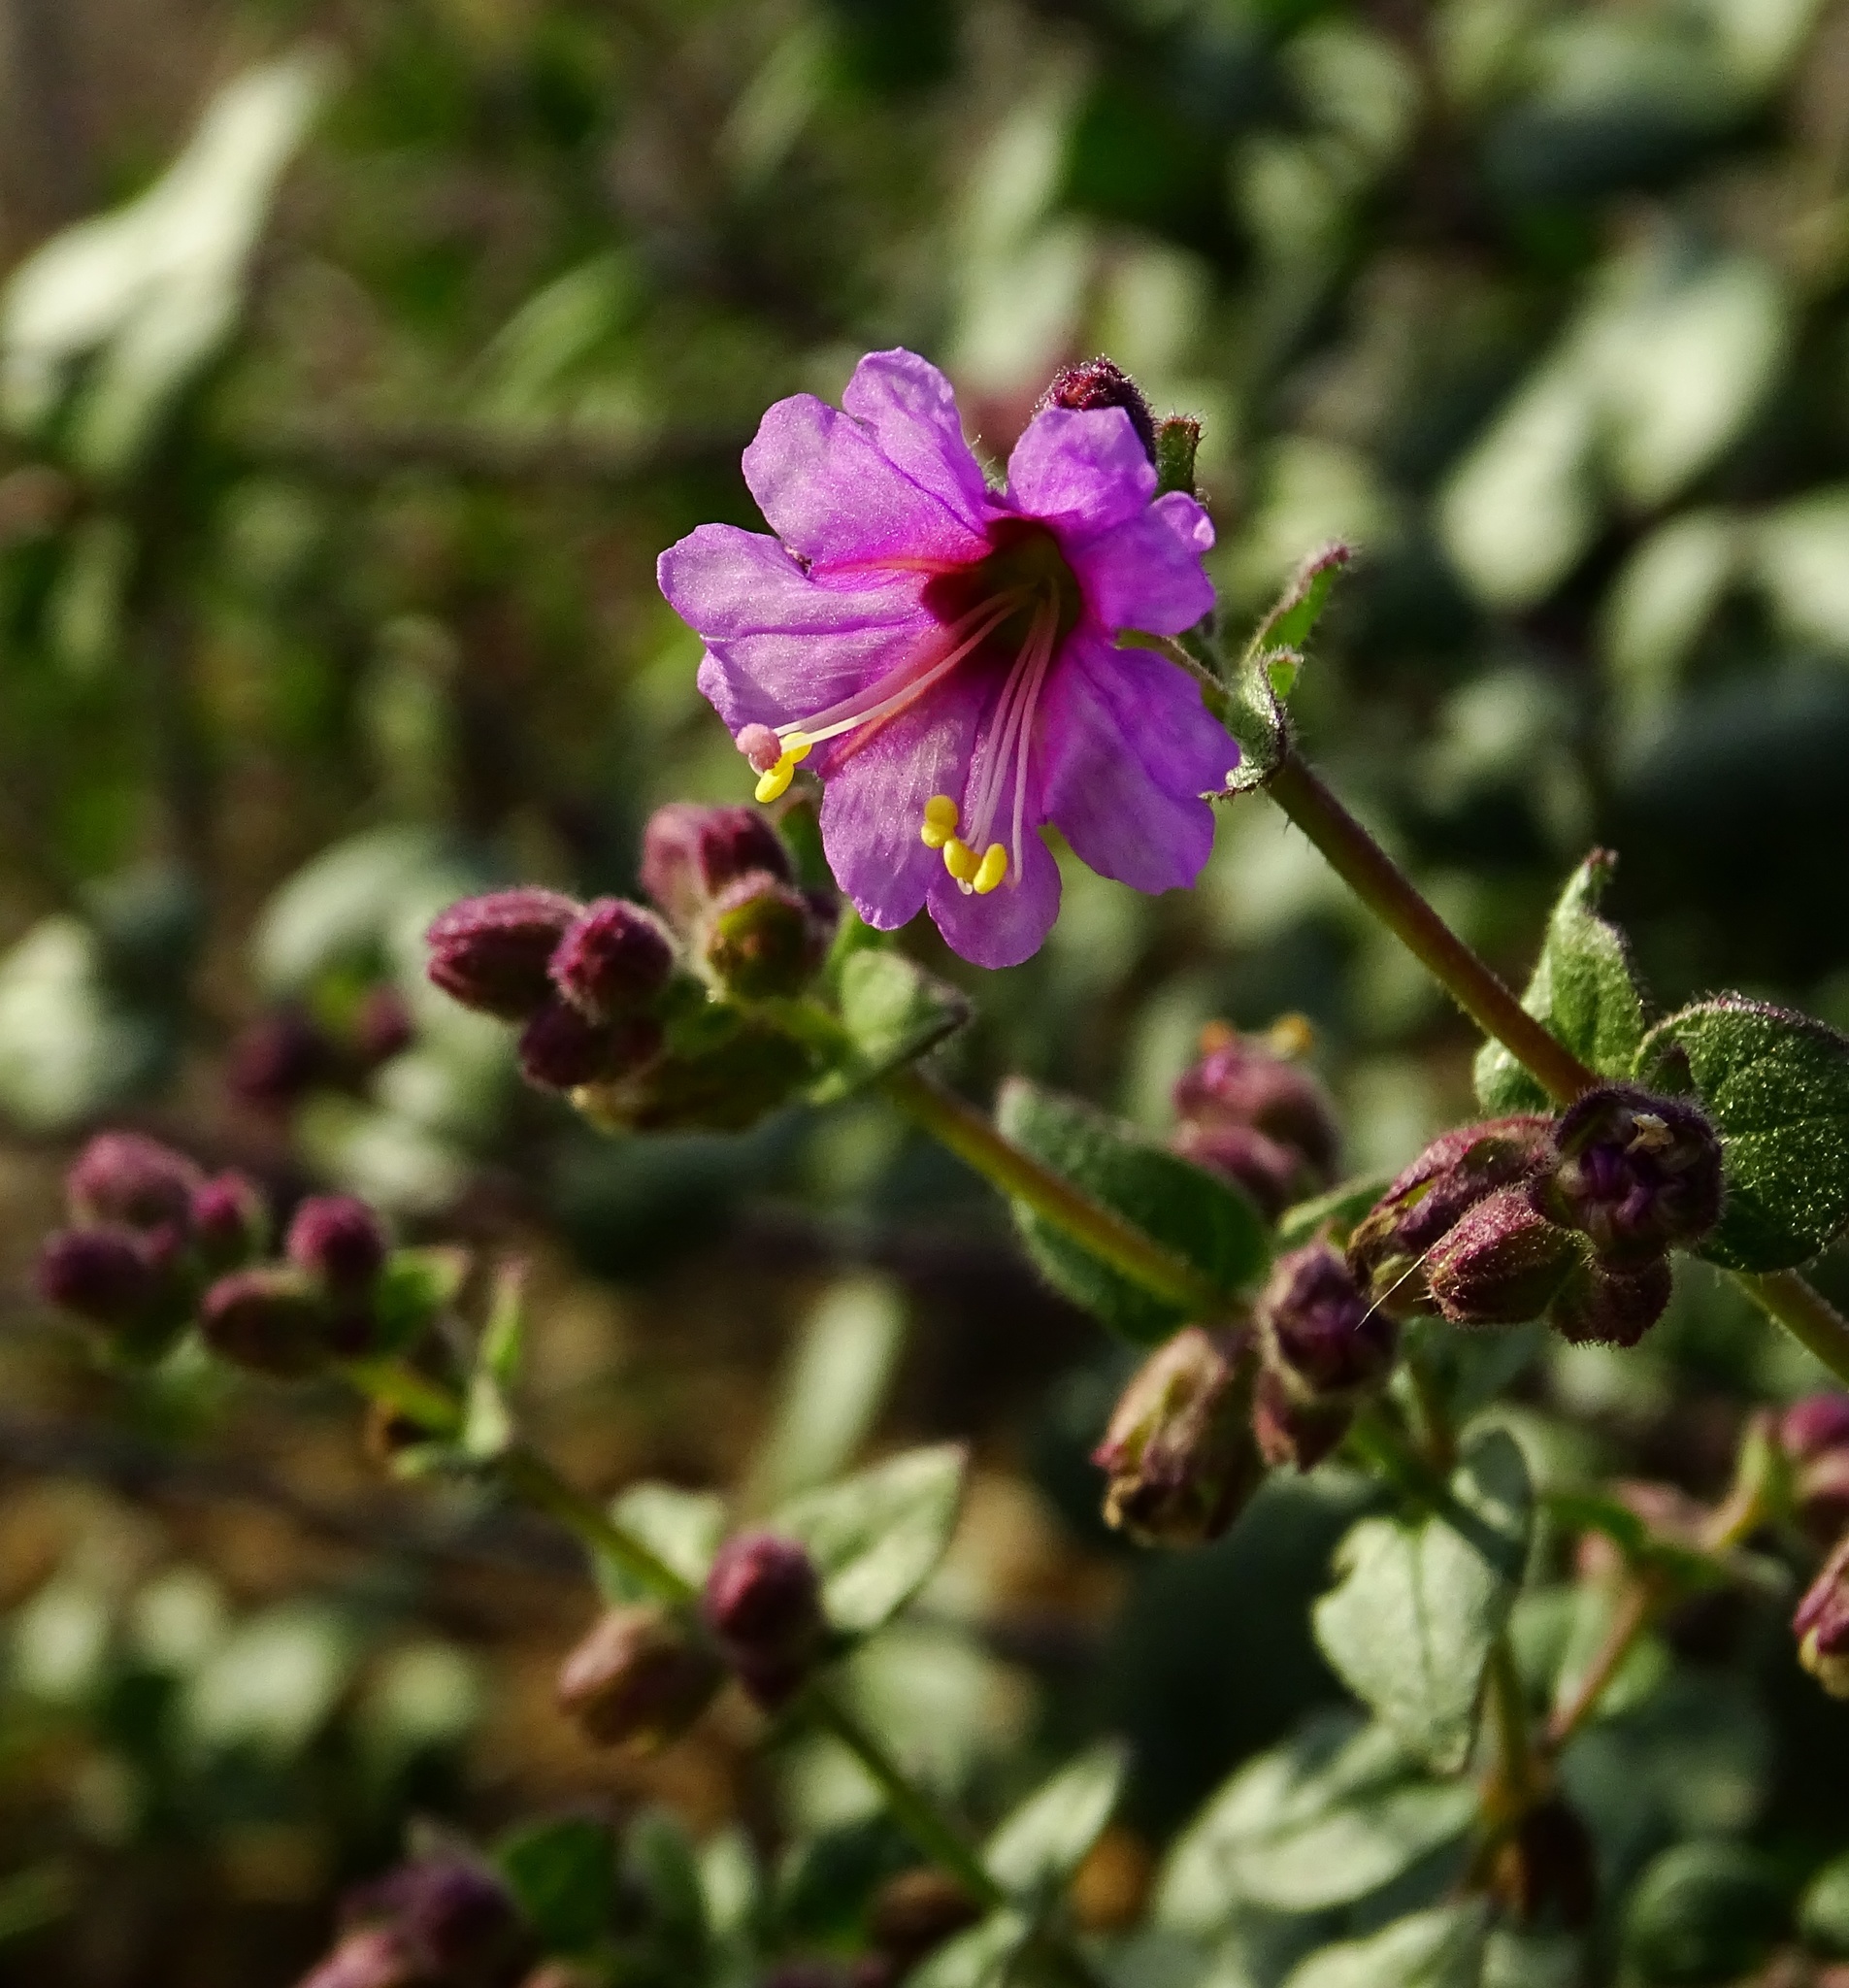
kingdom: Plantae
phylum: Tracheophyta
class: Magnoliopsida
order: Caryophyllales
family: Nyctaginaceae
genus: Mirabilis
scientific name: Mirabilis laevis
